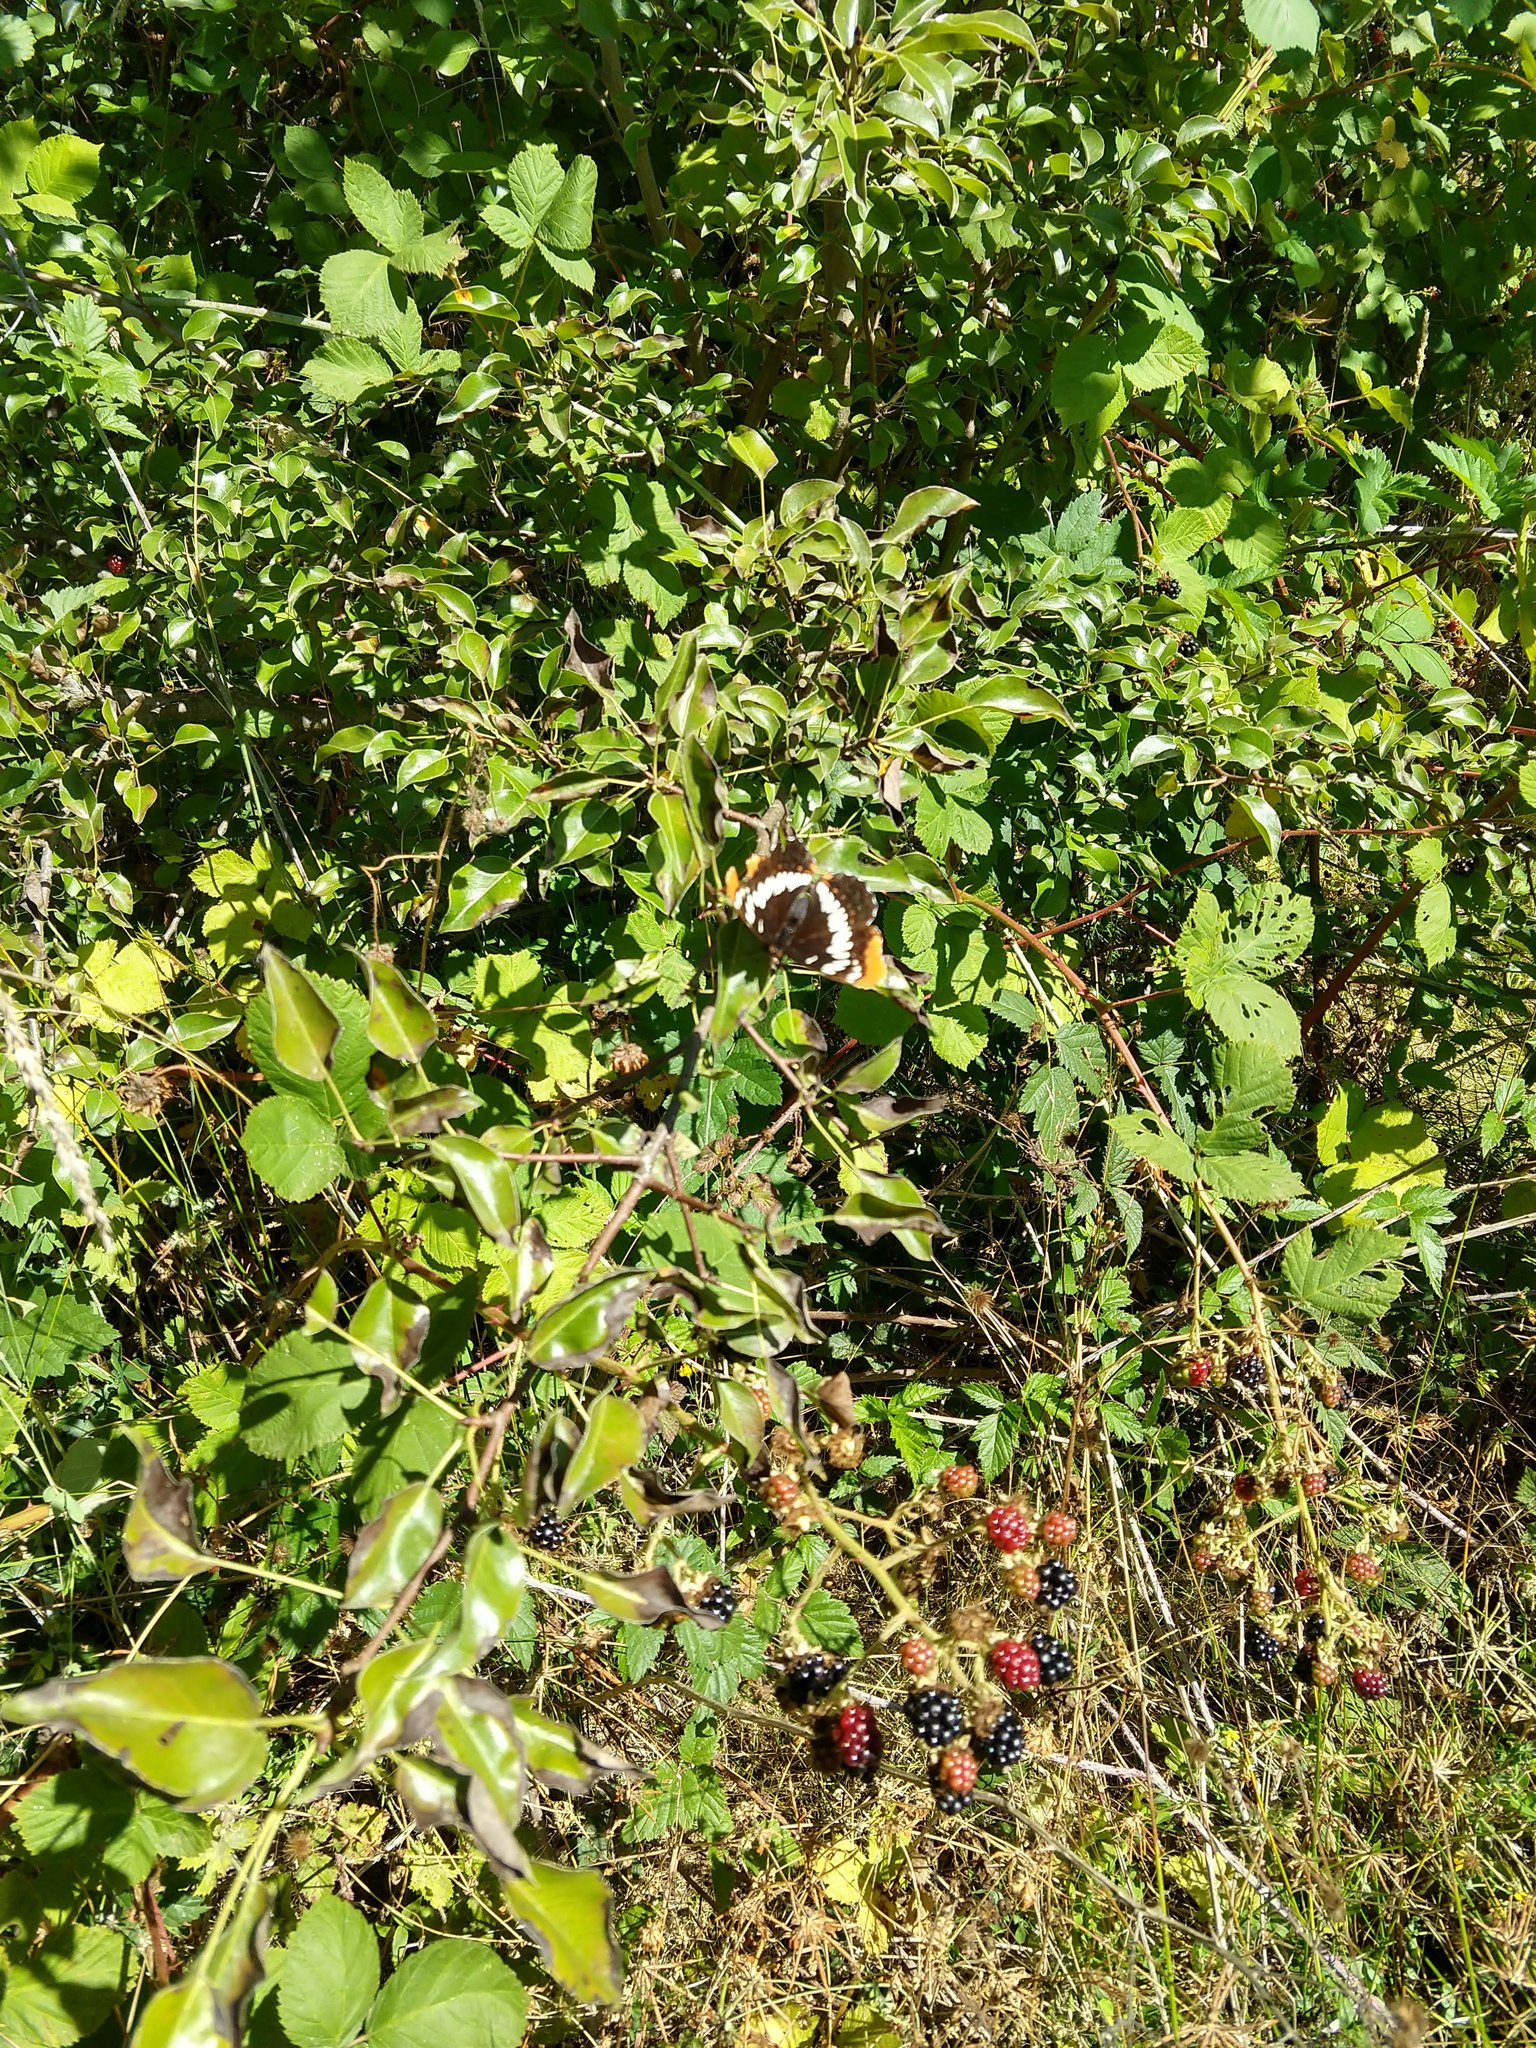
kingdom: Animalia
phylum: Arthropoda
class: Insecta
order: Lepidoptera
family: Nymphalidae
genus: Limenitis
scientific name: Limenitis lorquini
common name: Lorquin's admiral
